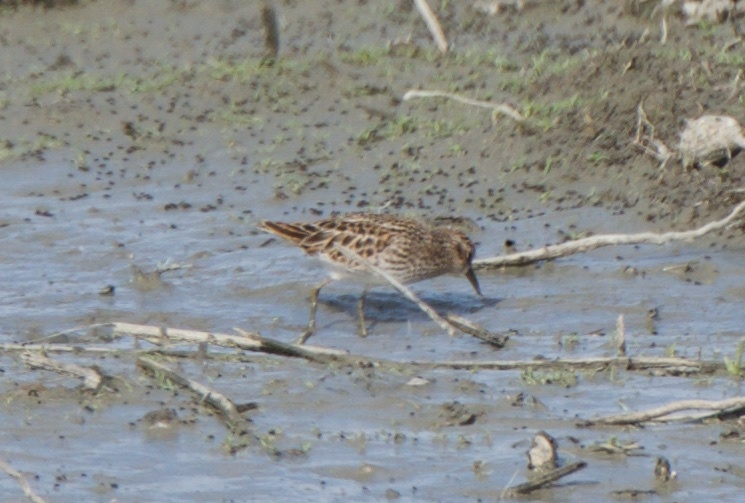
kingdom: Animalia
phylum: Chordata
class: Aves
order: Charadriiformes
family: Scolopacidae
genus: Calidris
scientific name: Calidris minutilla
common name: Least sandpiper
